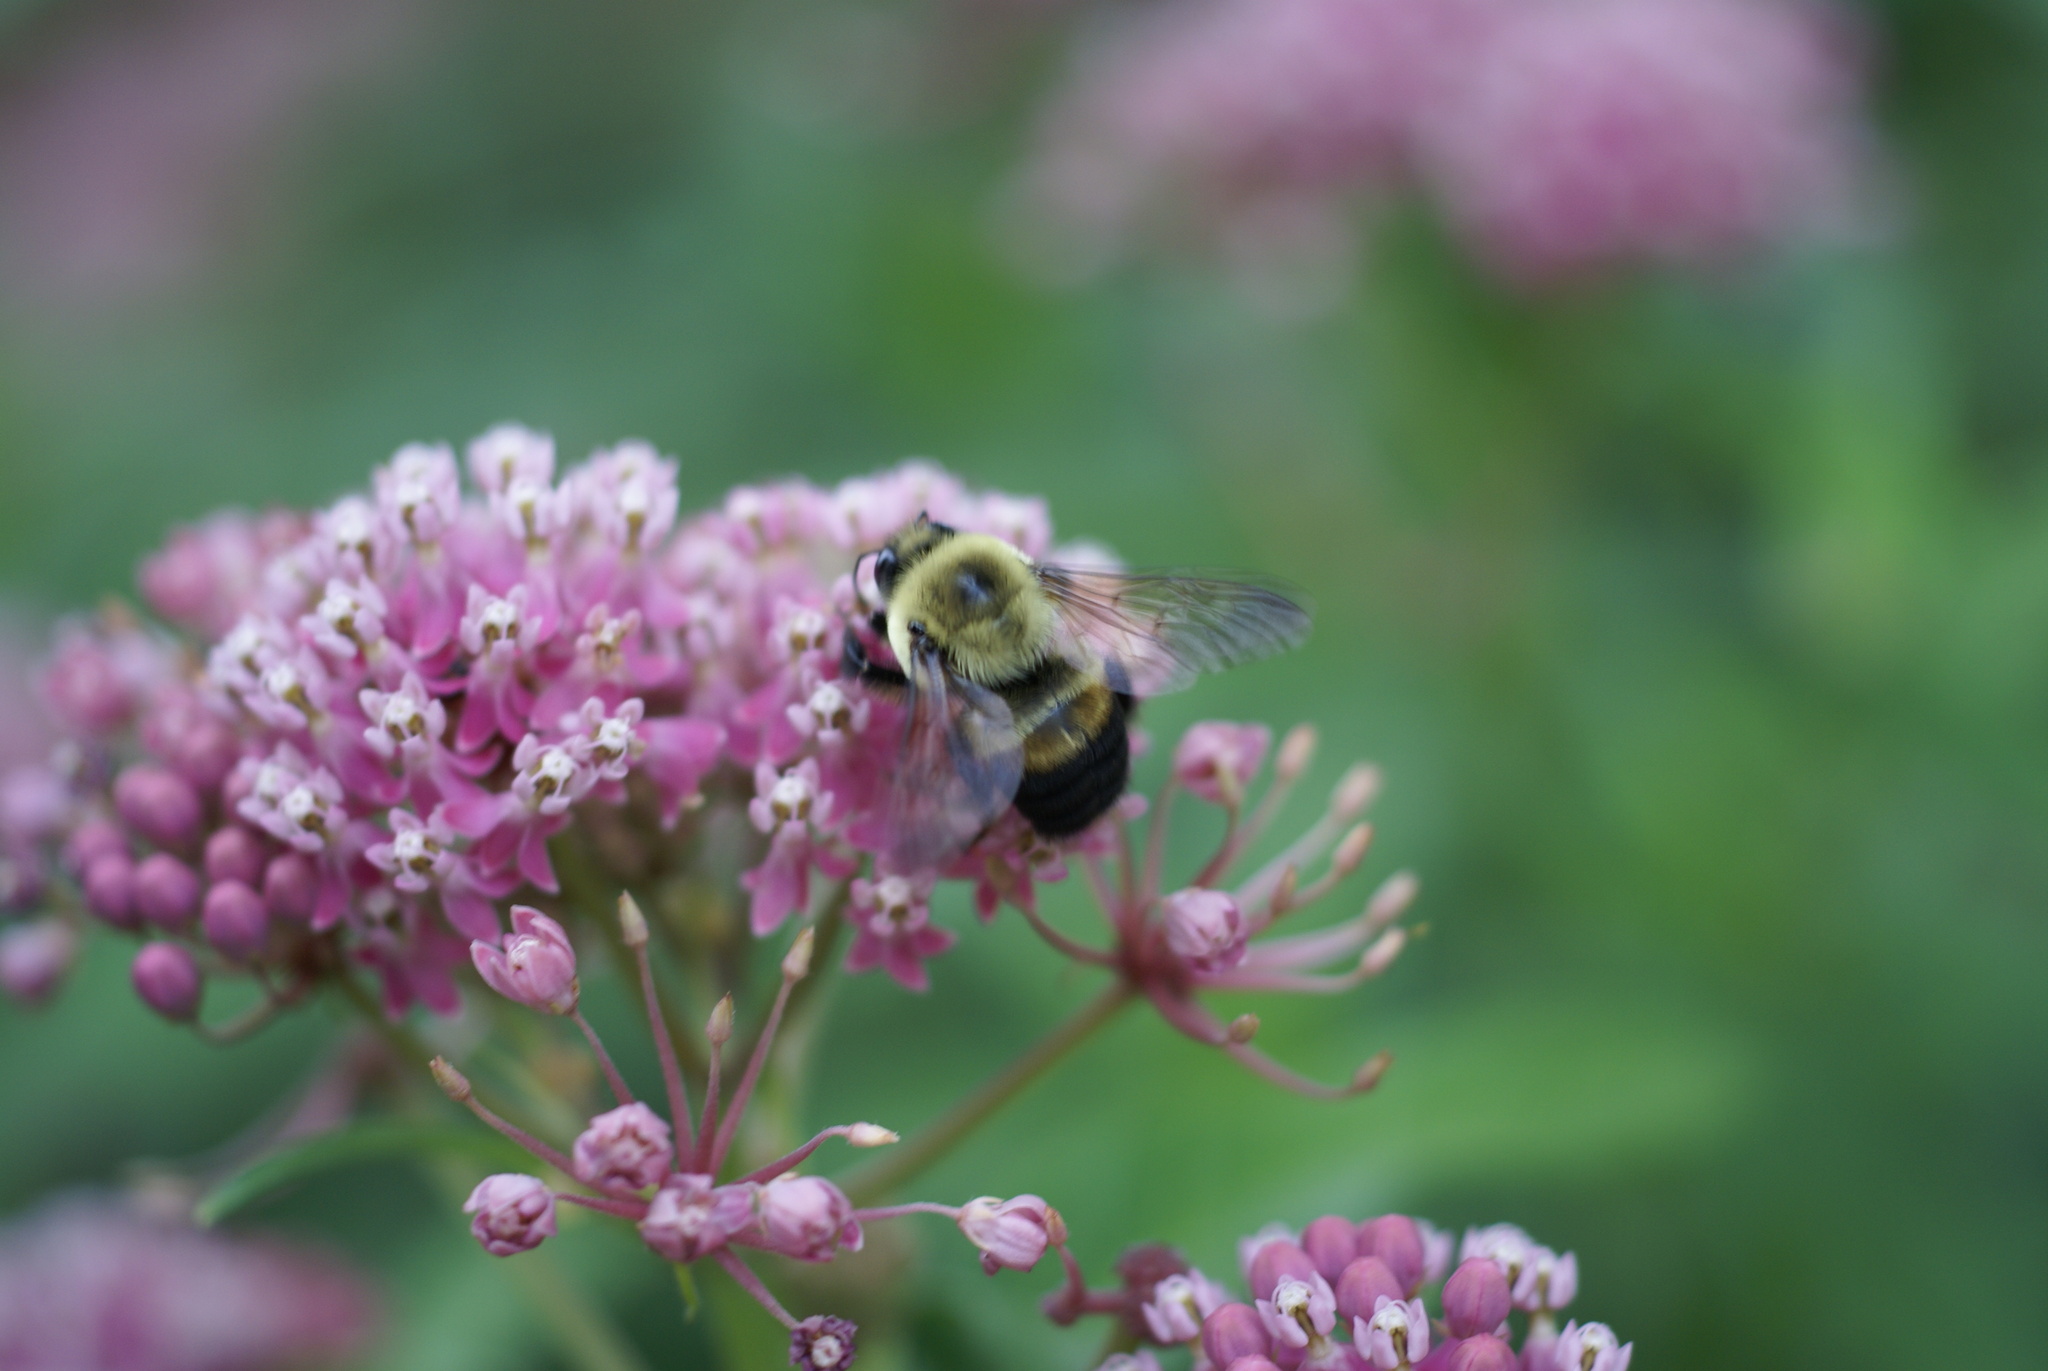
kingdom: Animalia
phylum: Arthropoda
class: Insecta
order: Hymenoptera
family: Apidae
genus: Bombus
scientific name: Bombus griseocollis
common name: Brown-belted bumble bee
